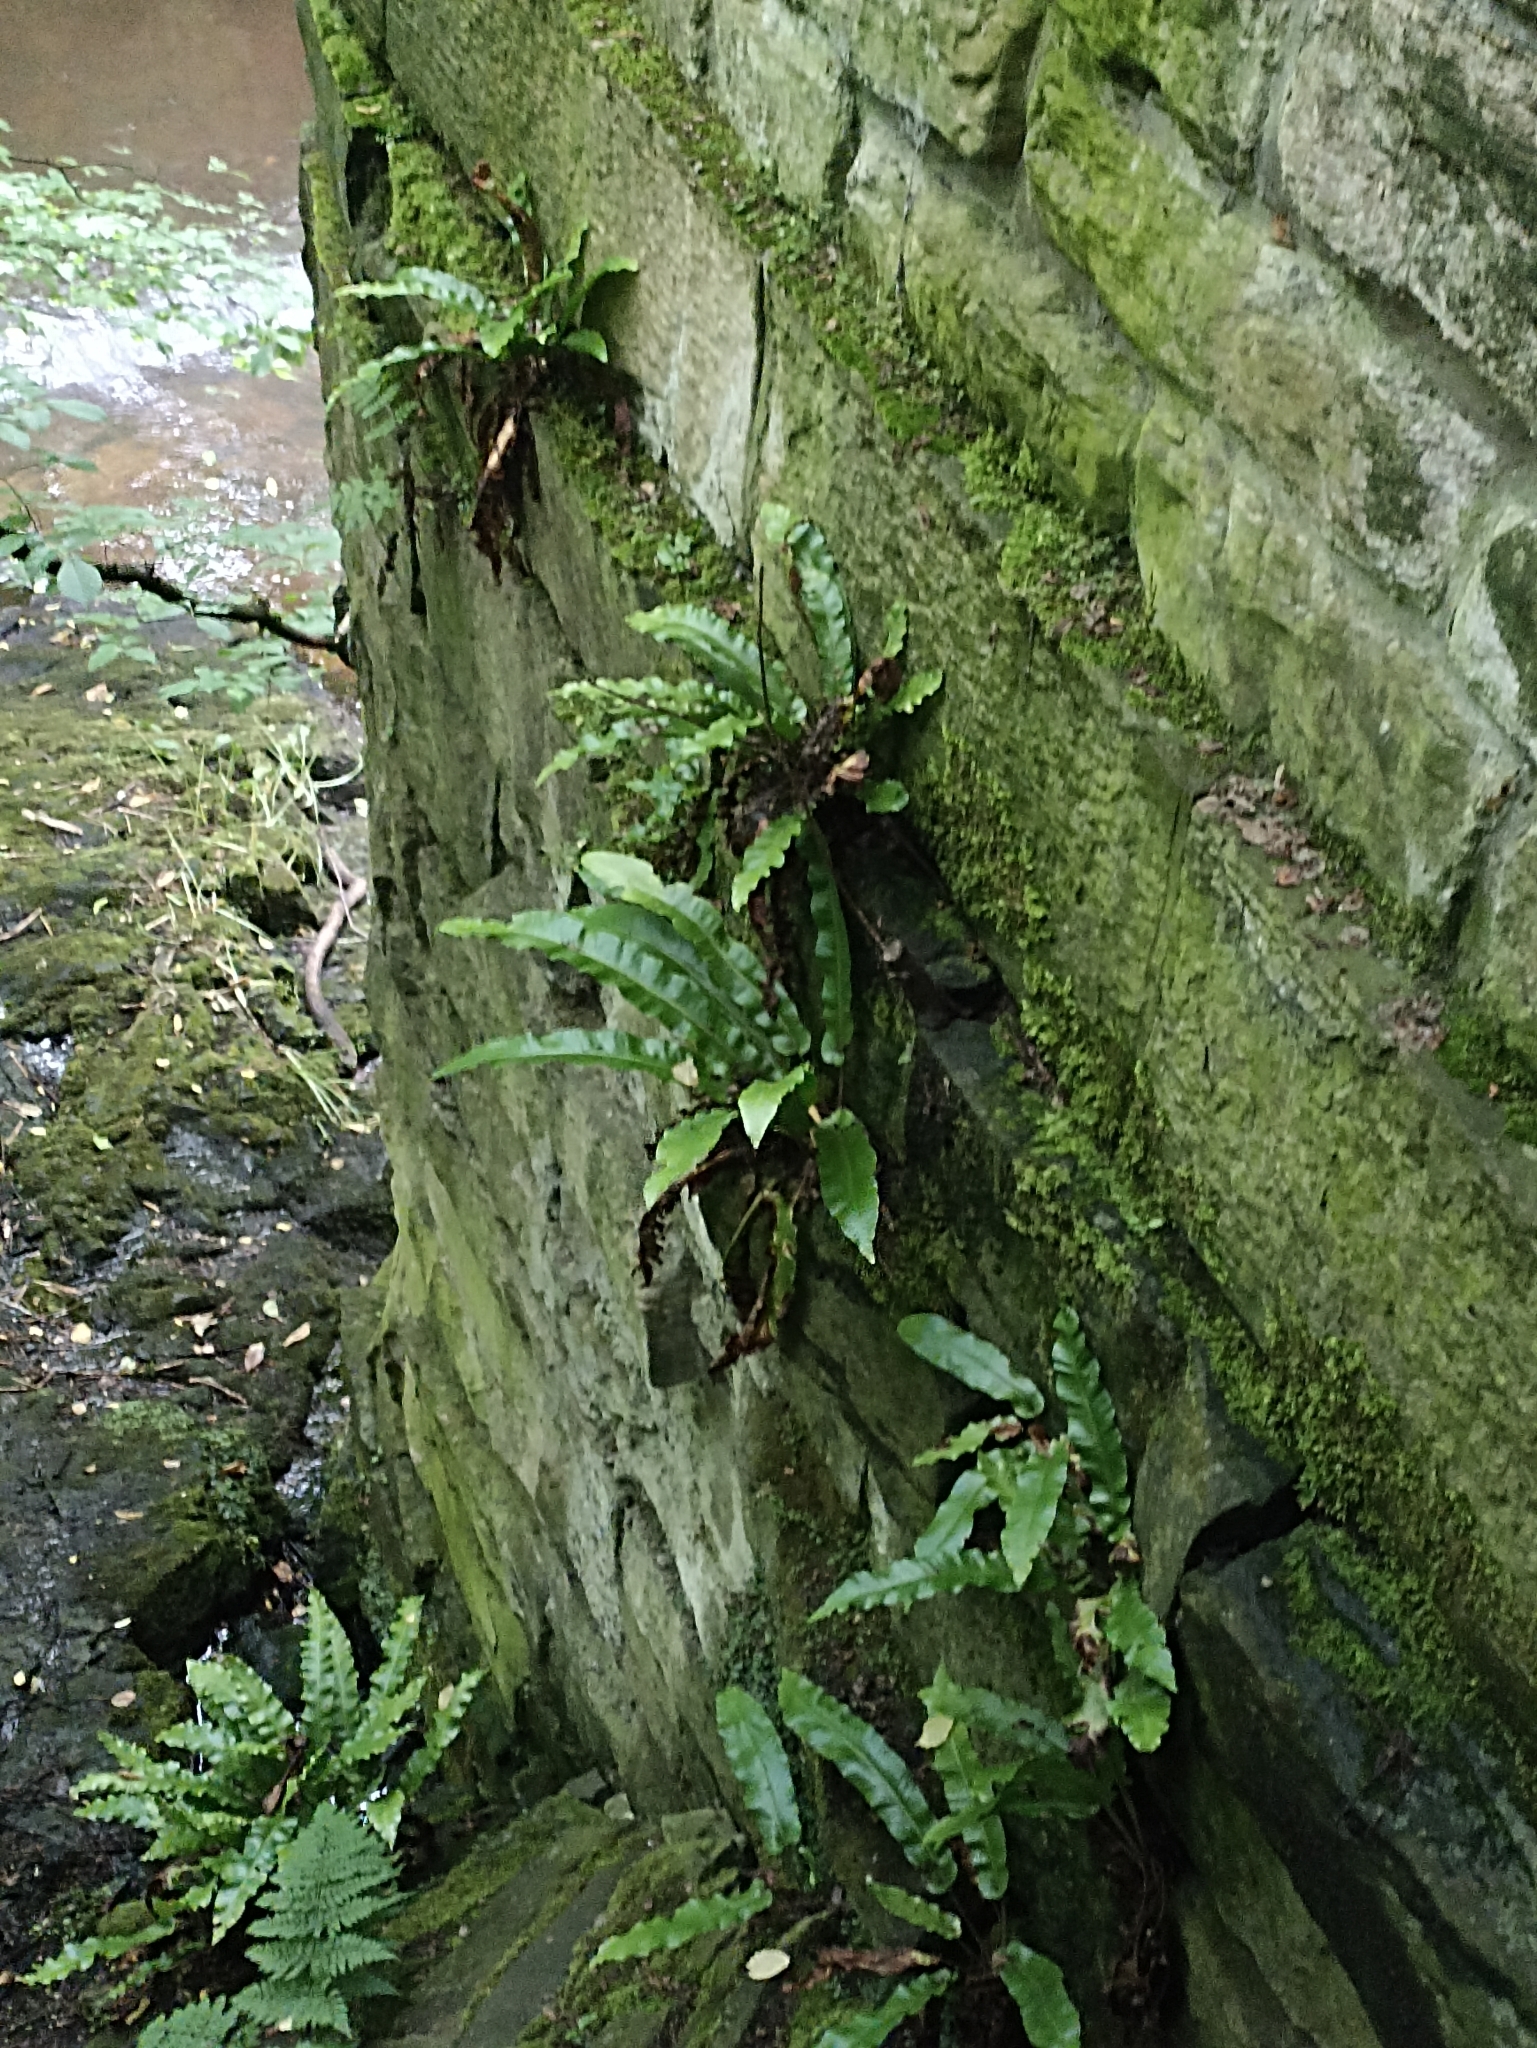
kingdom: Plantae
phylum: Tracheophyta
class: Polypodiopsida
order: Polypodiales
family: Aspleniaceae
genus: Asplenium
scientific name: Asplenium scolopendrium
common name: Hart's-tongue fern
